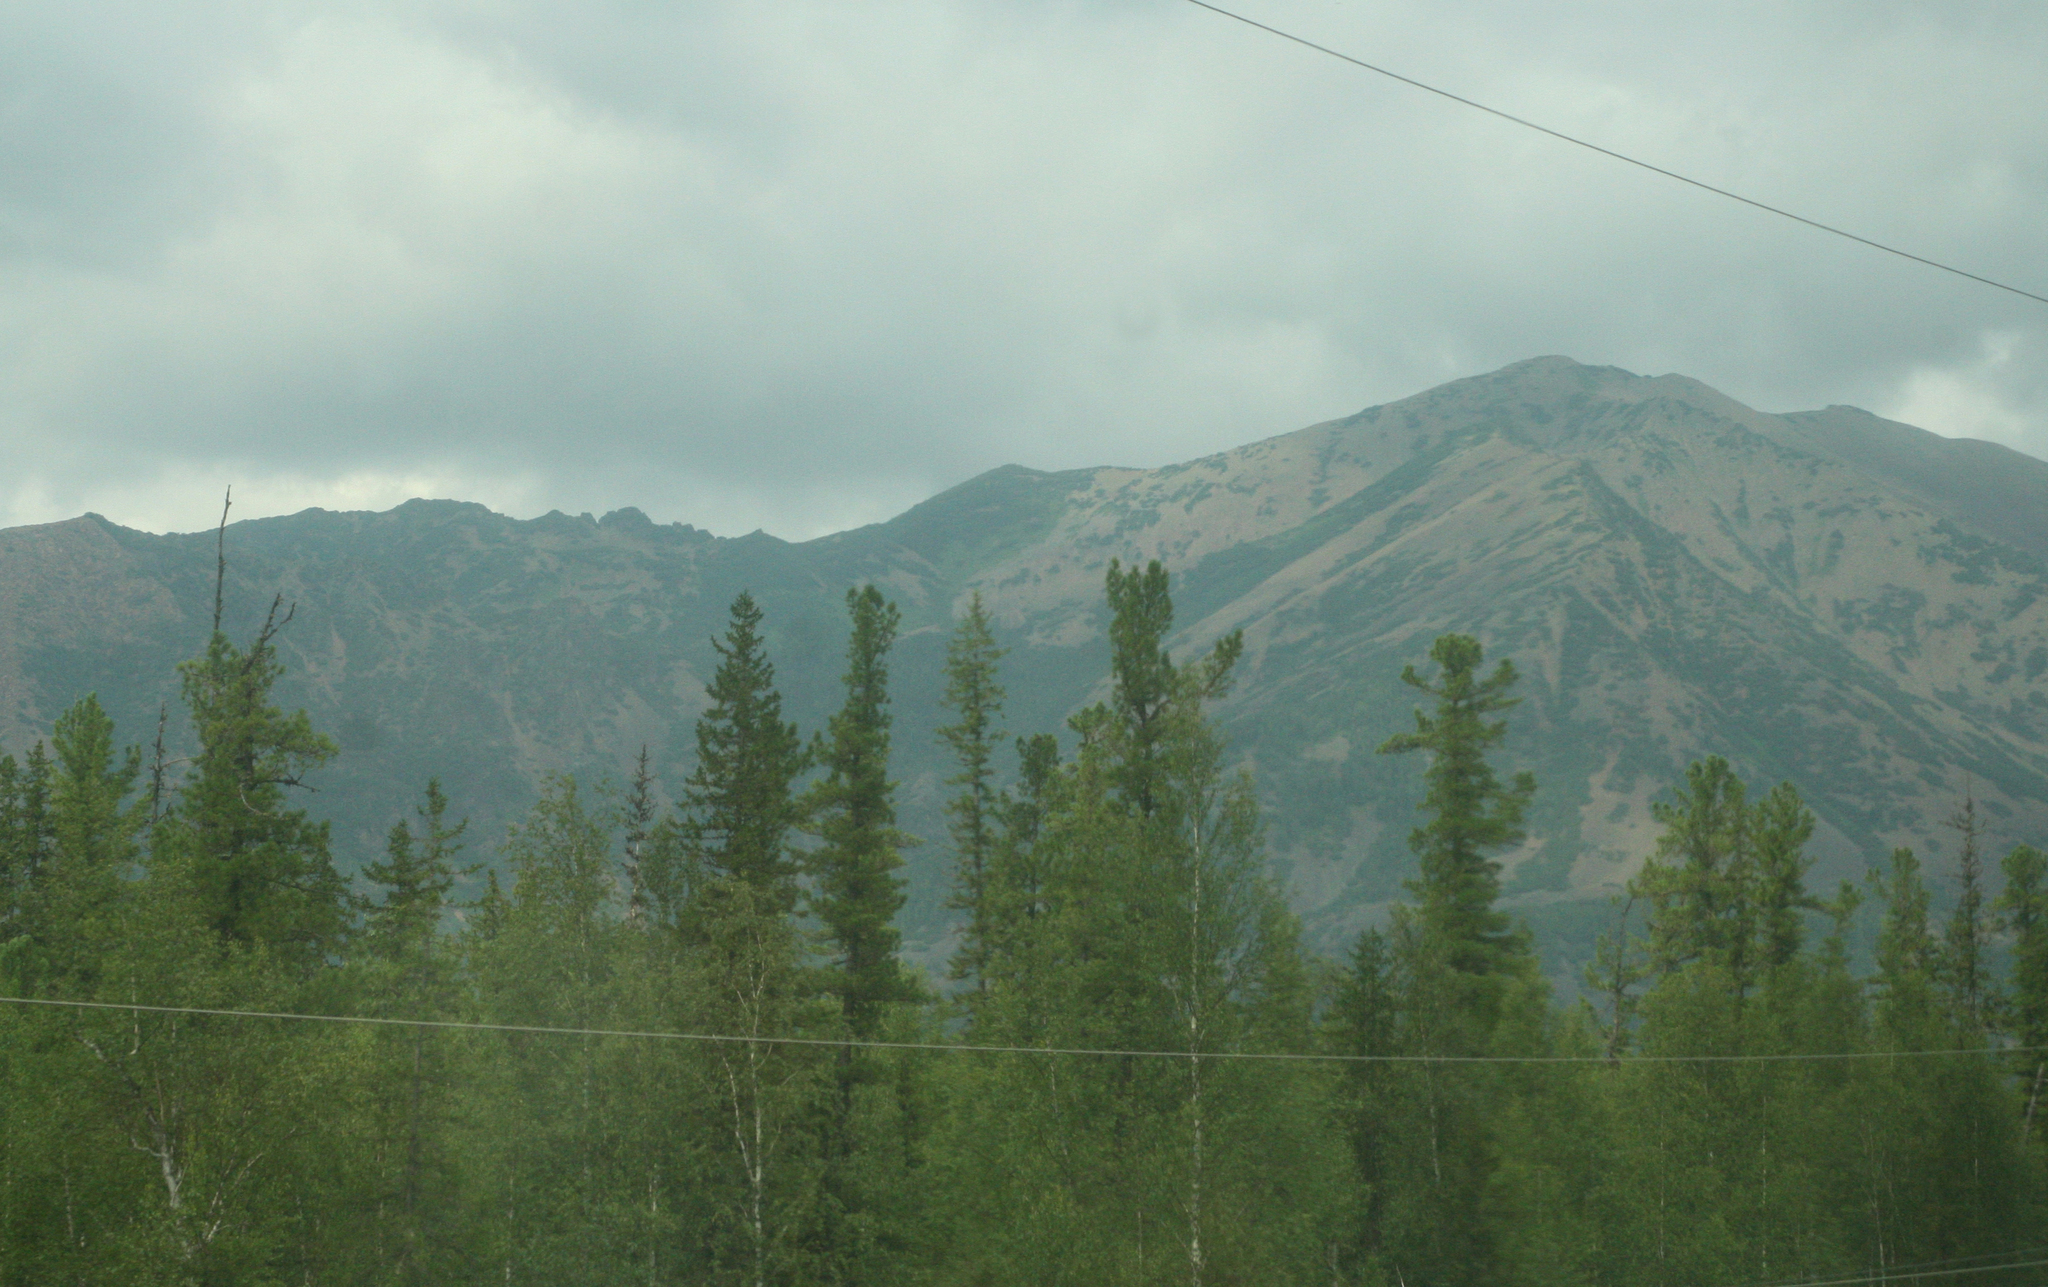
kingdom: Plantae
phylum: Tracheophyta
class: Pinopsida
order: Pinales
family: Pinaceae
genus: Pinus
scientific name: Pinus sibirica
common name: Siberian pine
